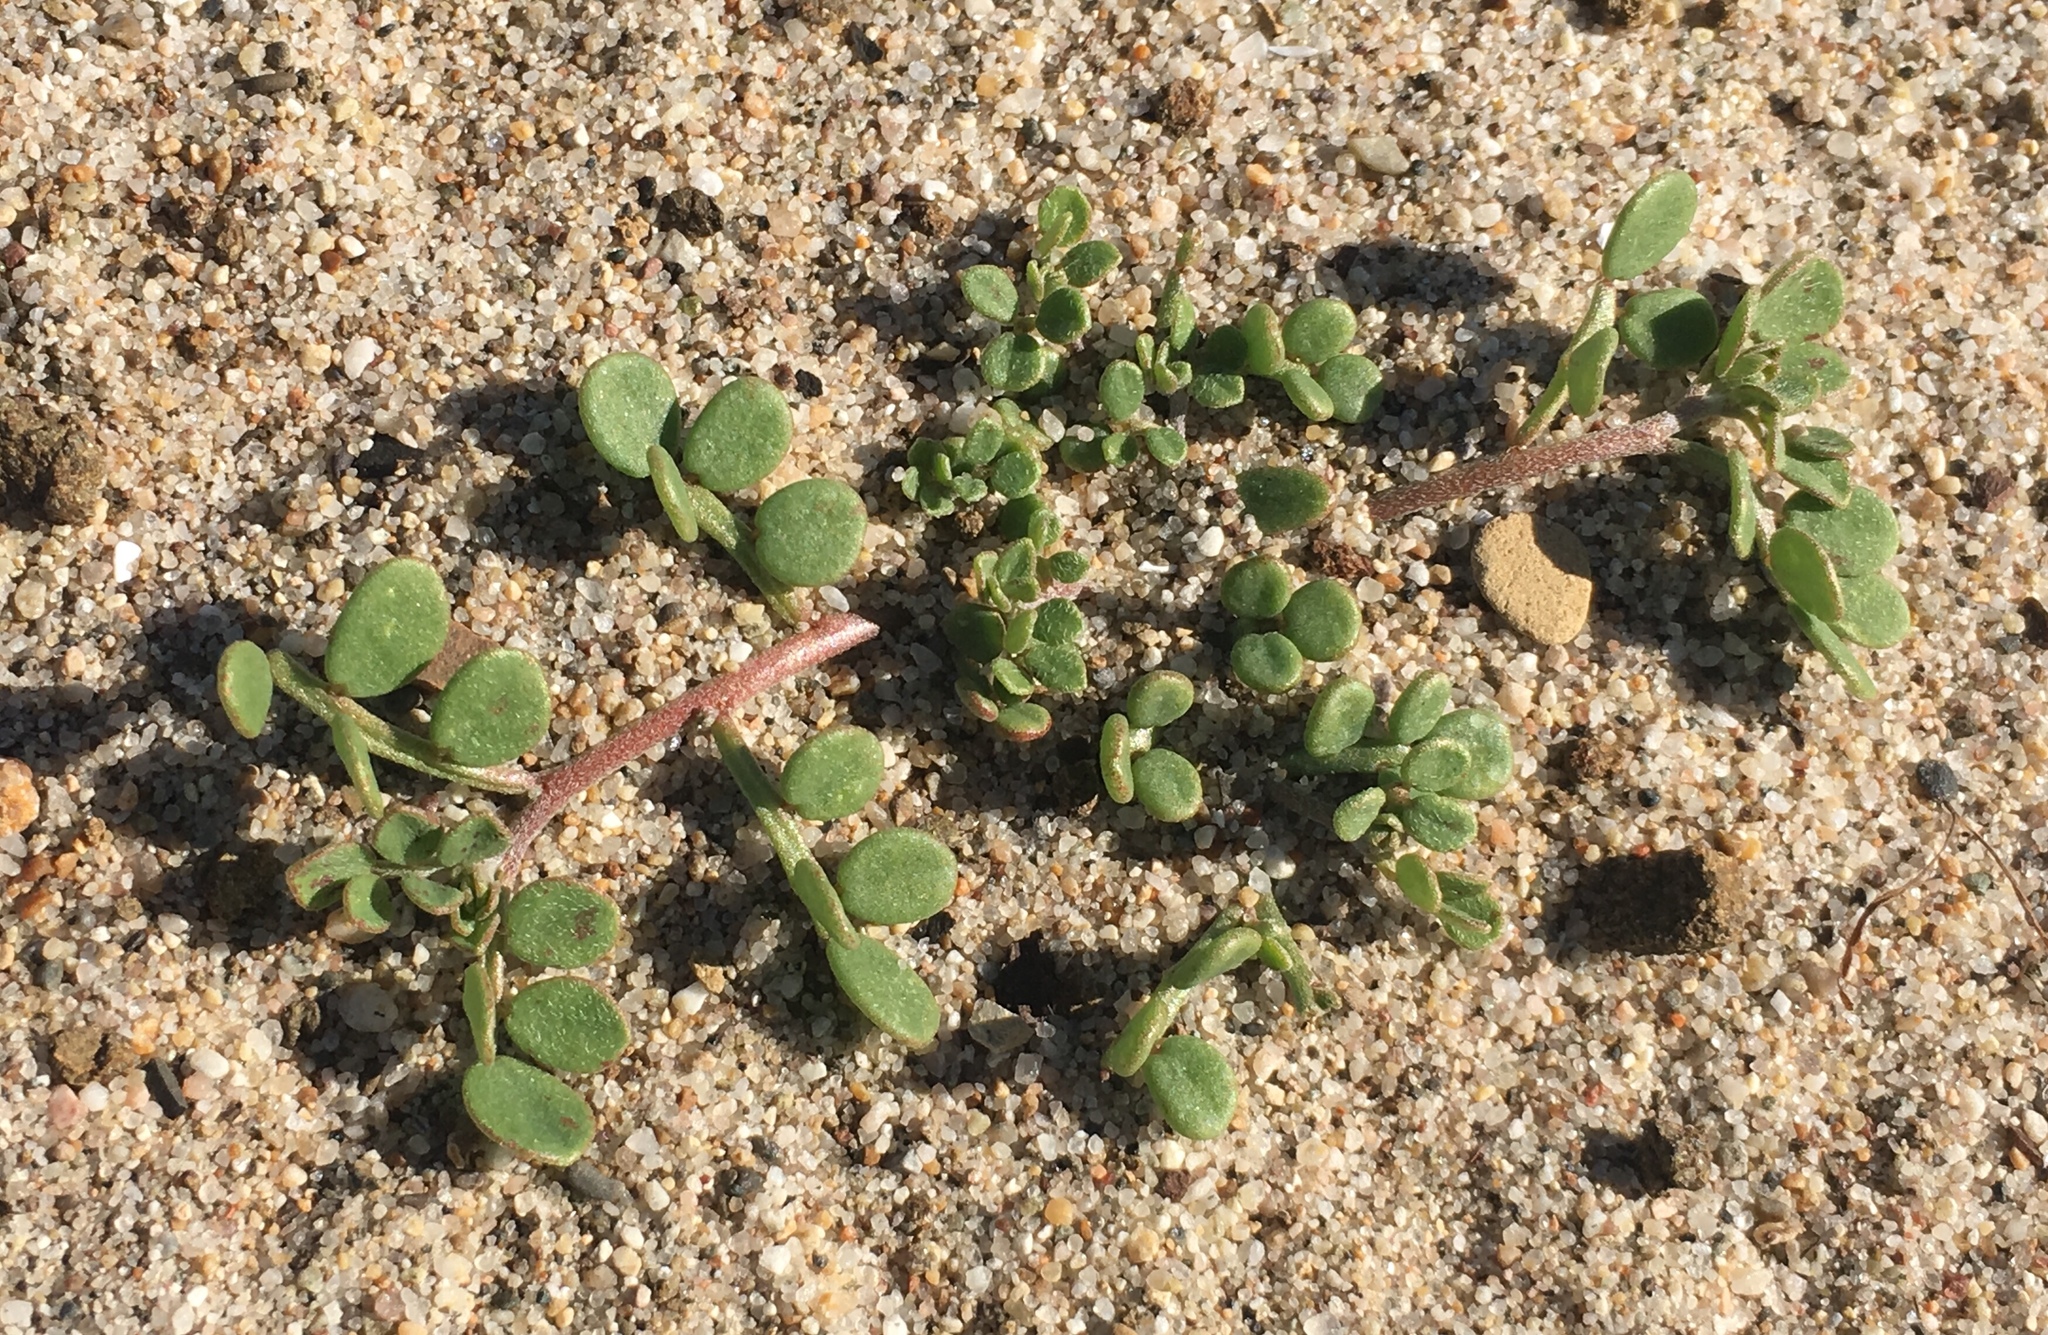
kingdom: Plantae
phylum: Tracheophyta
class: Magnoliopsida
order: Fabales
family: Fabaceae
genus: Acmispon
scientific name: Acmispon maritimus
